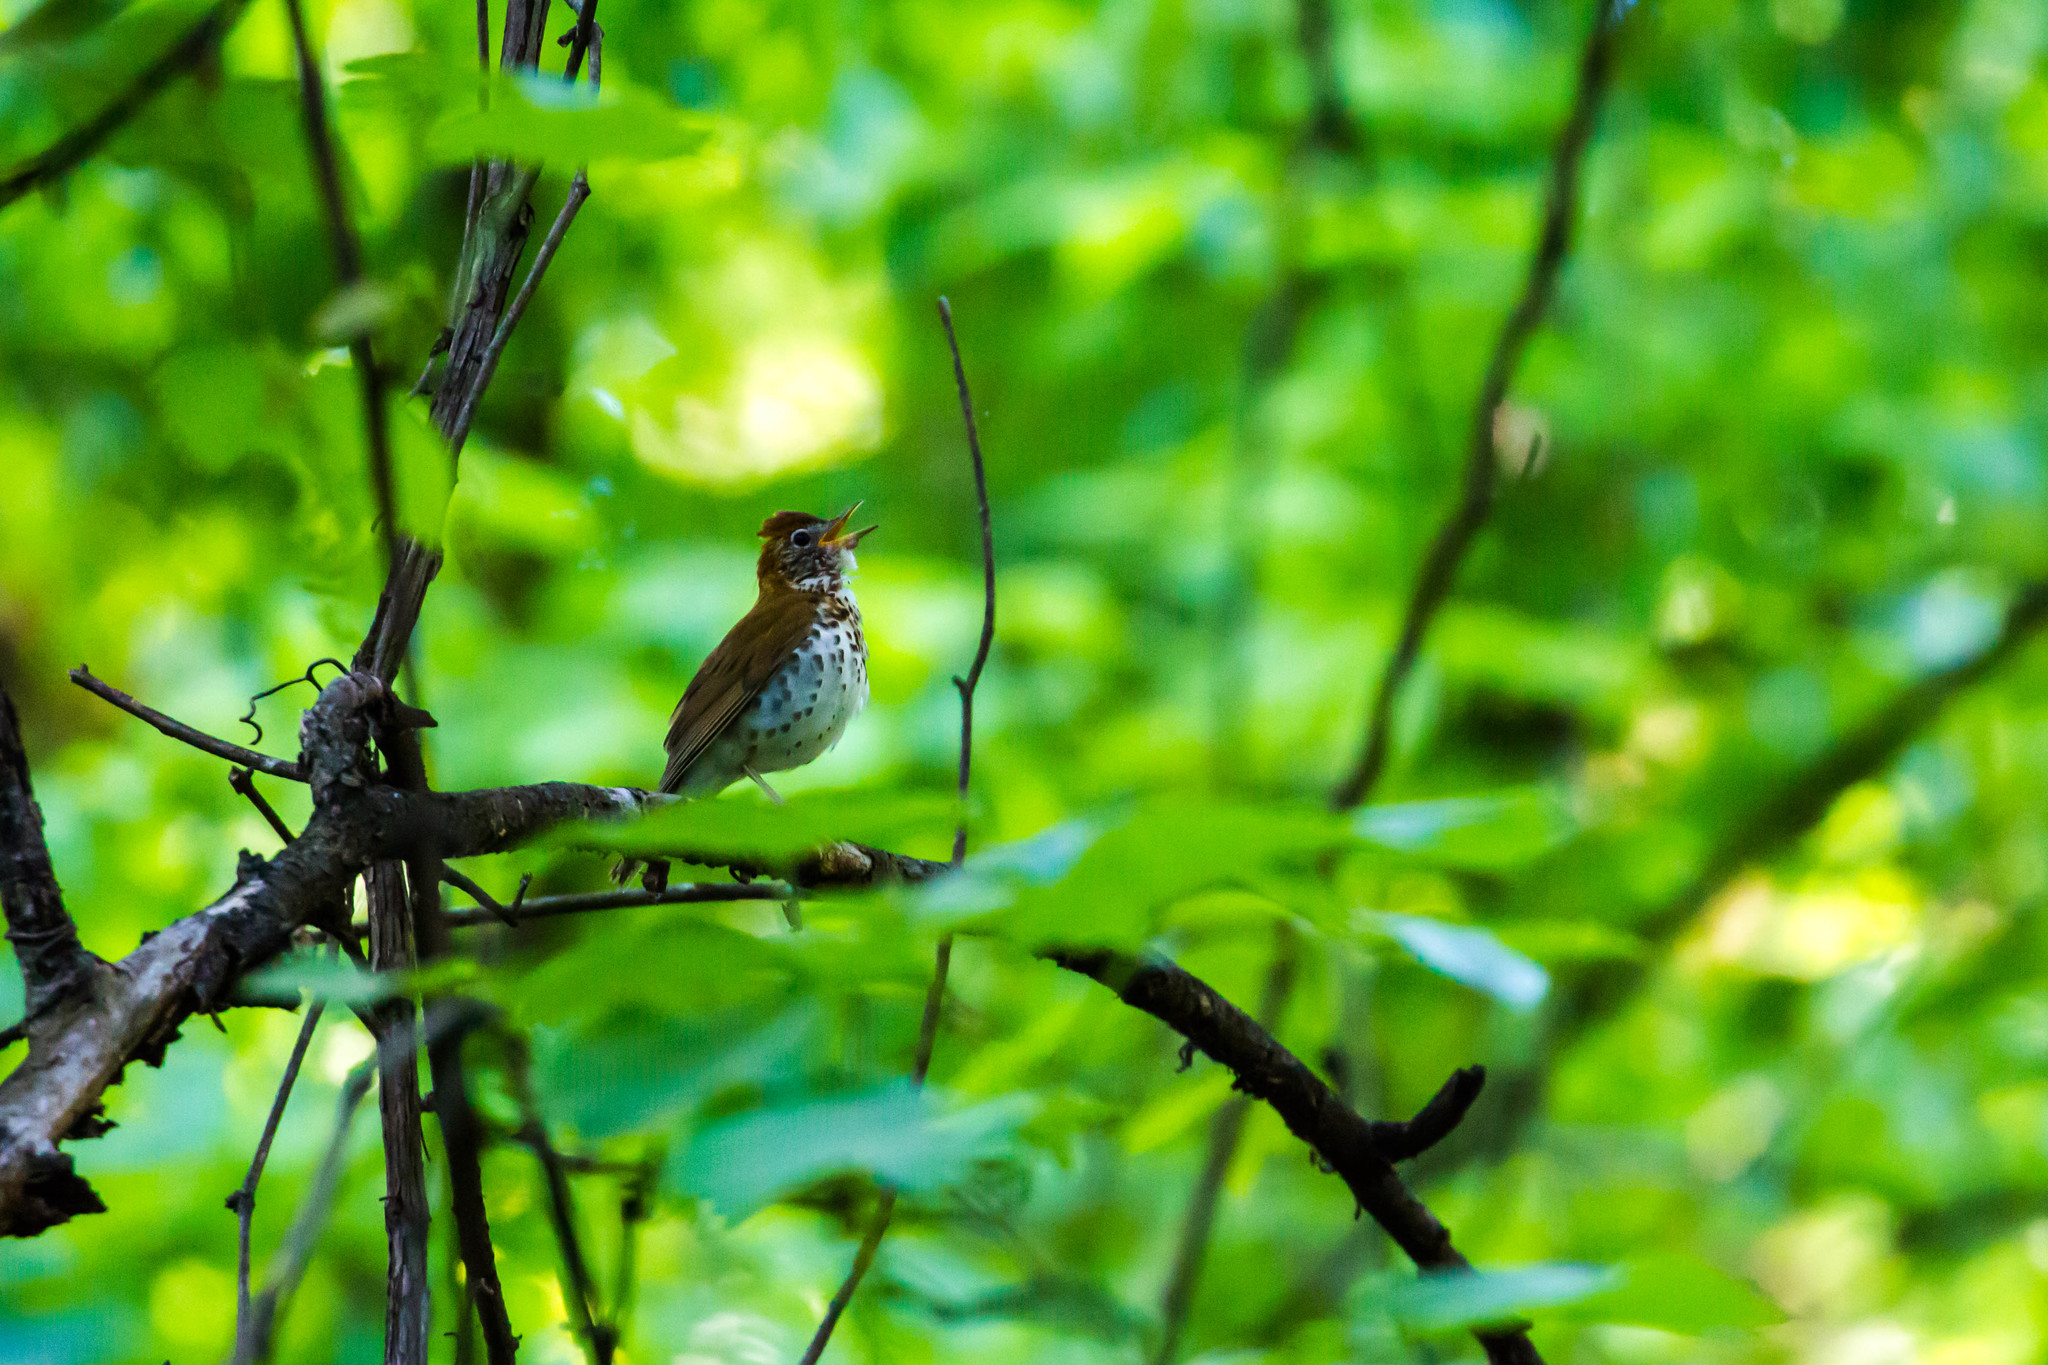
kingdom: Animalia
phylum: Chordata
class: Aves
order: Passeriformes
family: Turdidae
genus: Hylocichla
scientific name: Hylocichla mustelina
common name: Wood thrush
